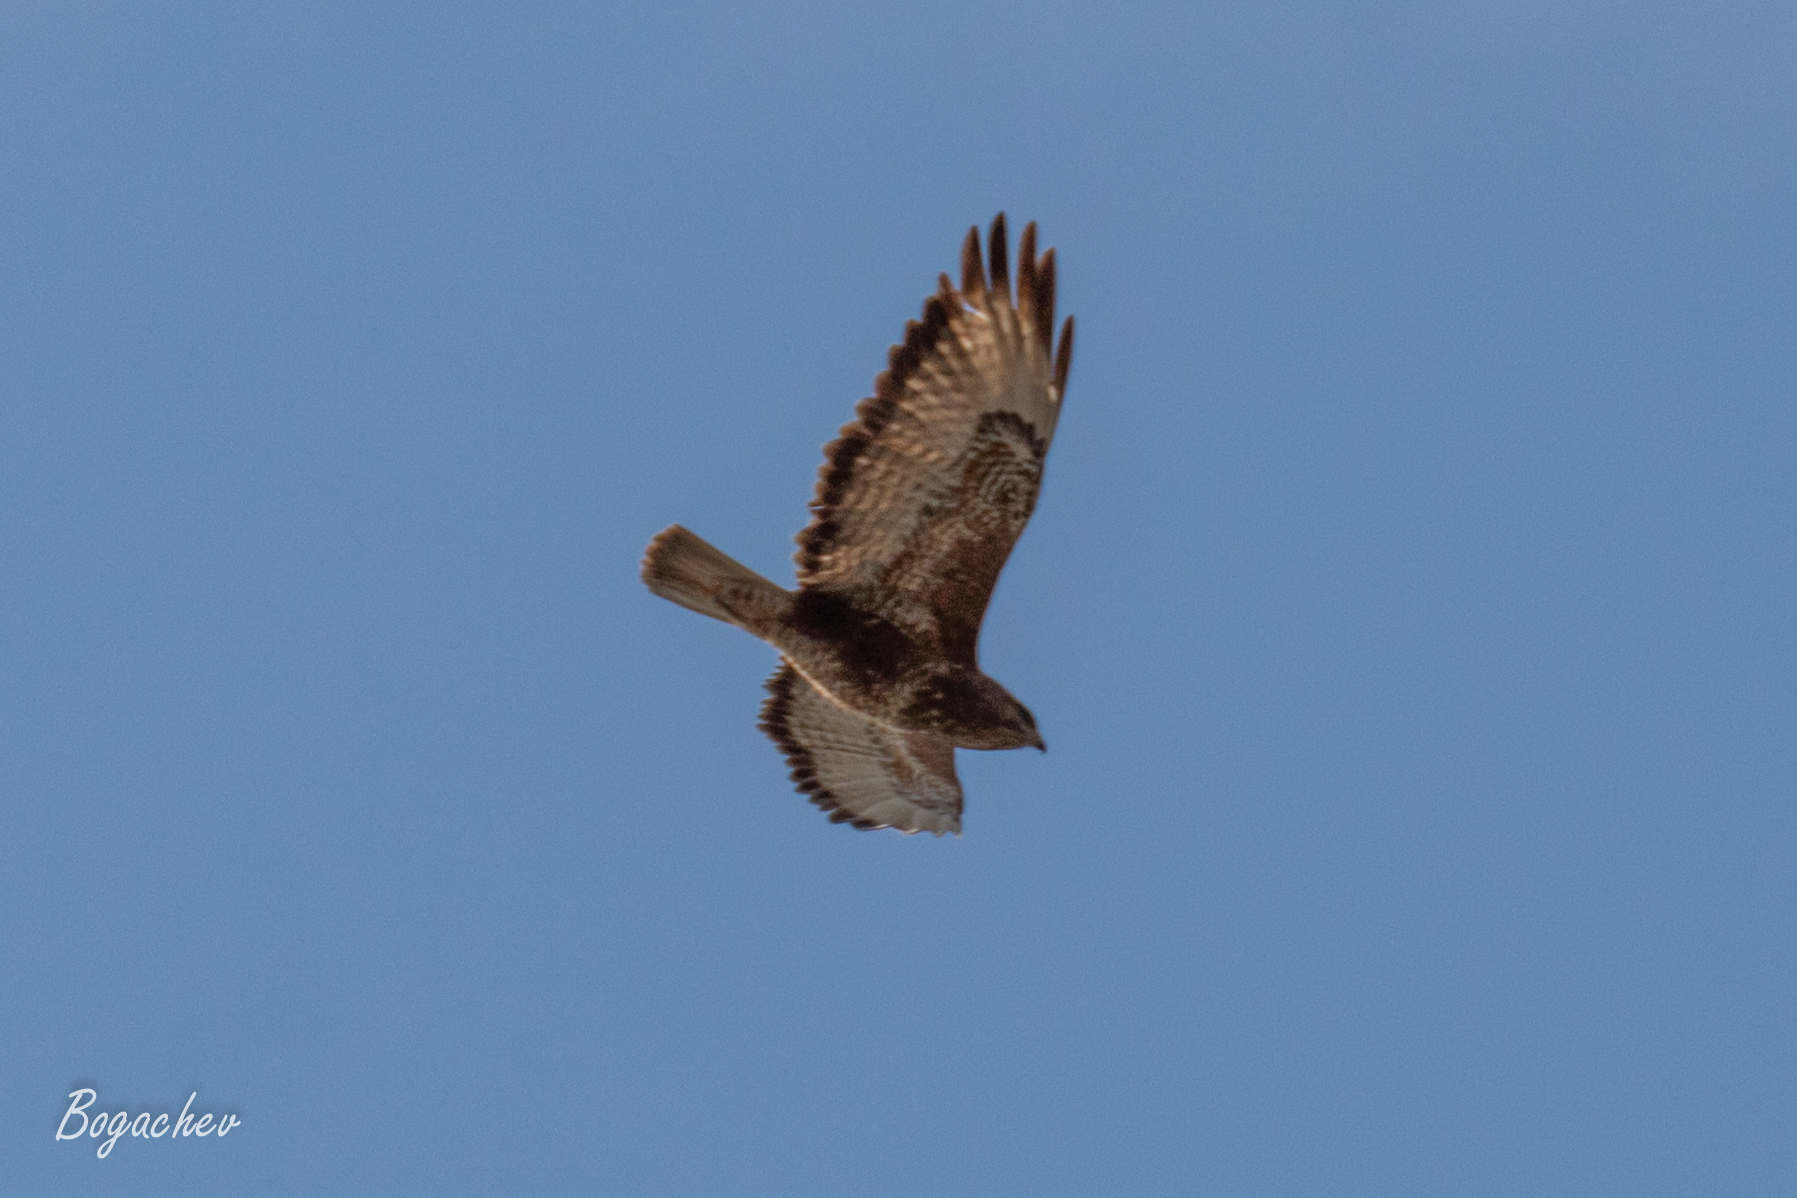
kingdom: Animalia
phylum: Chordata
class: Aves
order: Accipitriformes
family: Accipitridae
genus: Buteo
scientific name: Buteo buteo
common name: Common buzzard
